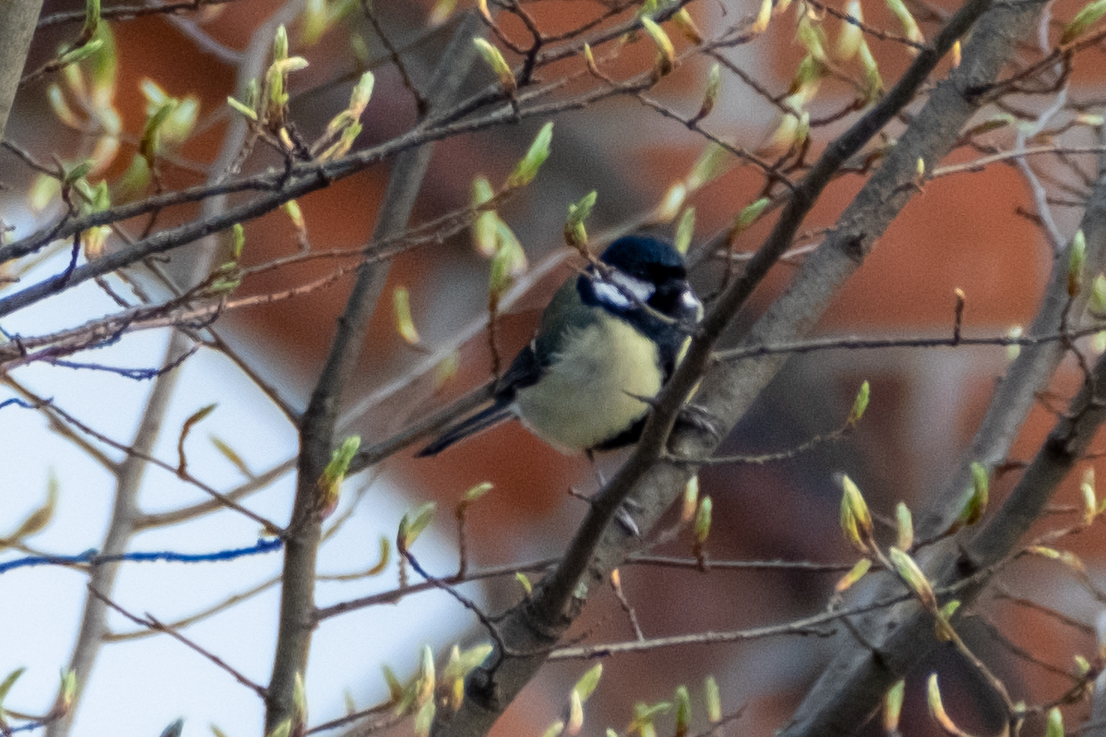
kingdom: Animalia
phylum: Chordata
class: Aves
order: Passeriformes
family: Paridae
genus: Parus
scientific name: Parus major
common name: Great tit
